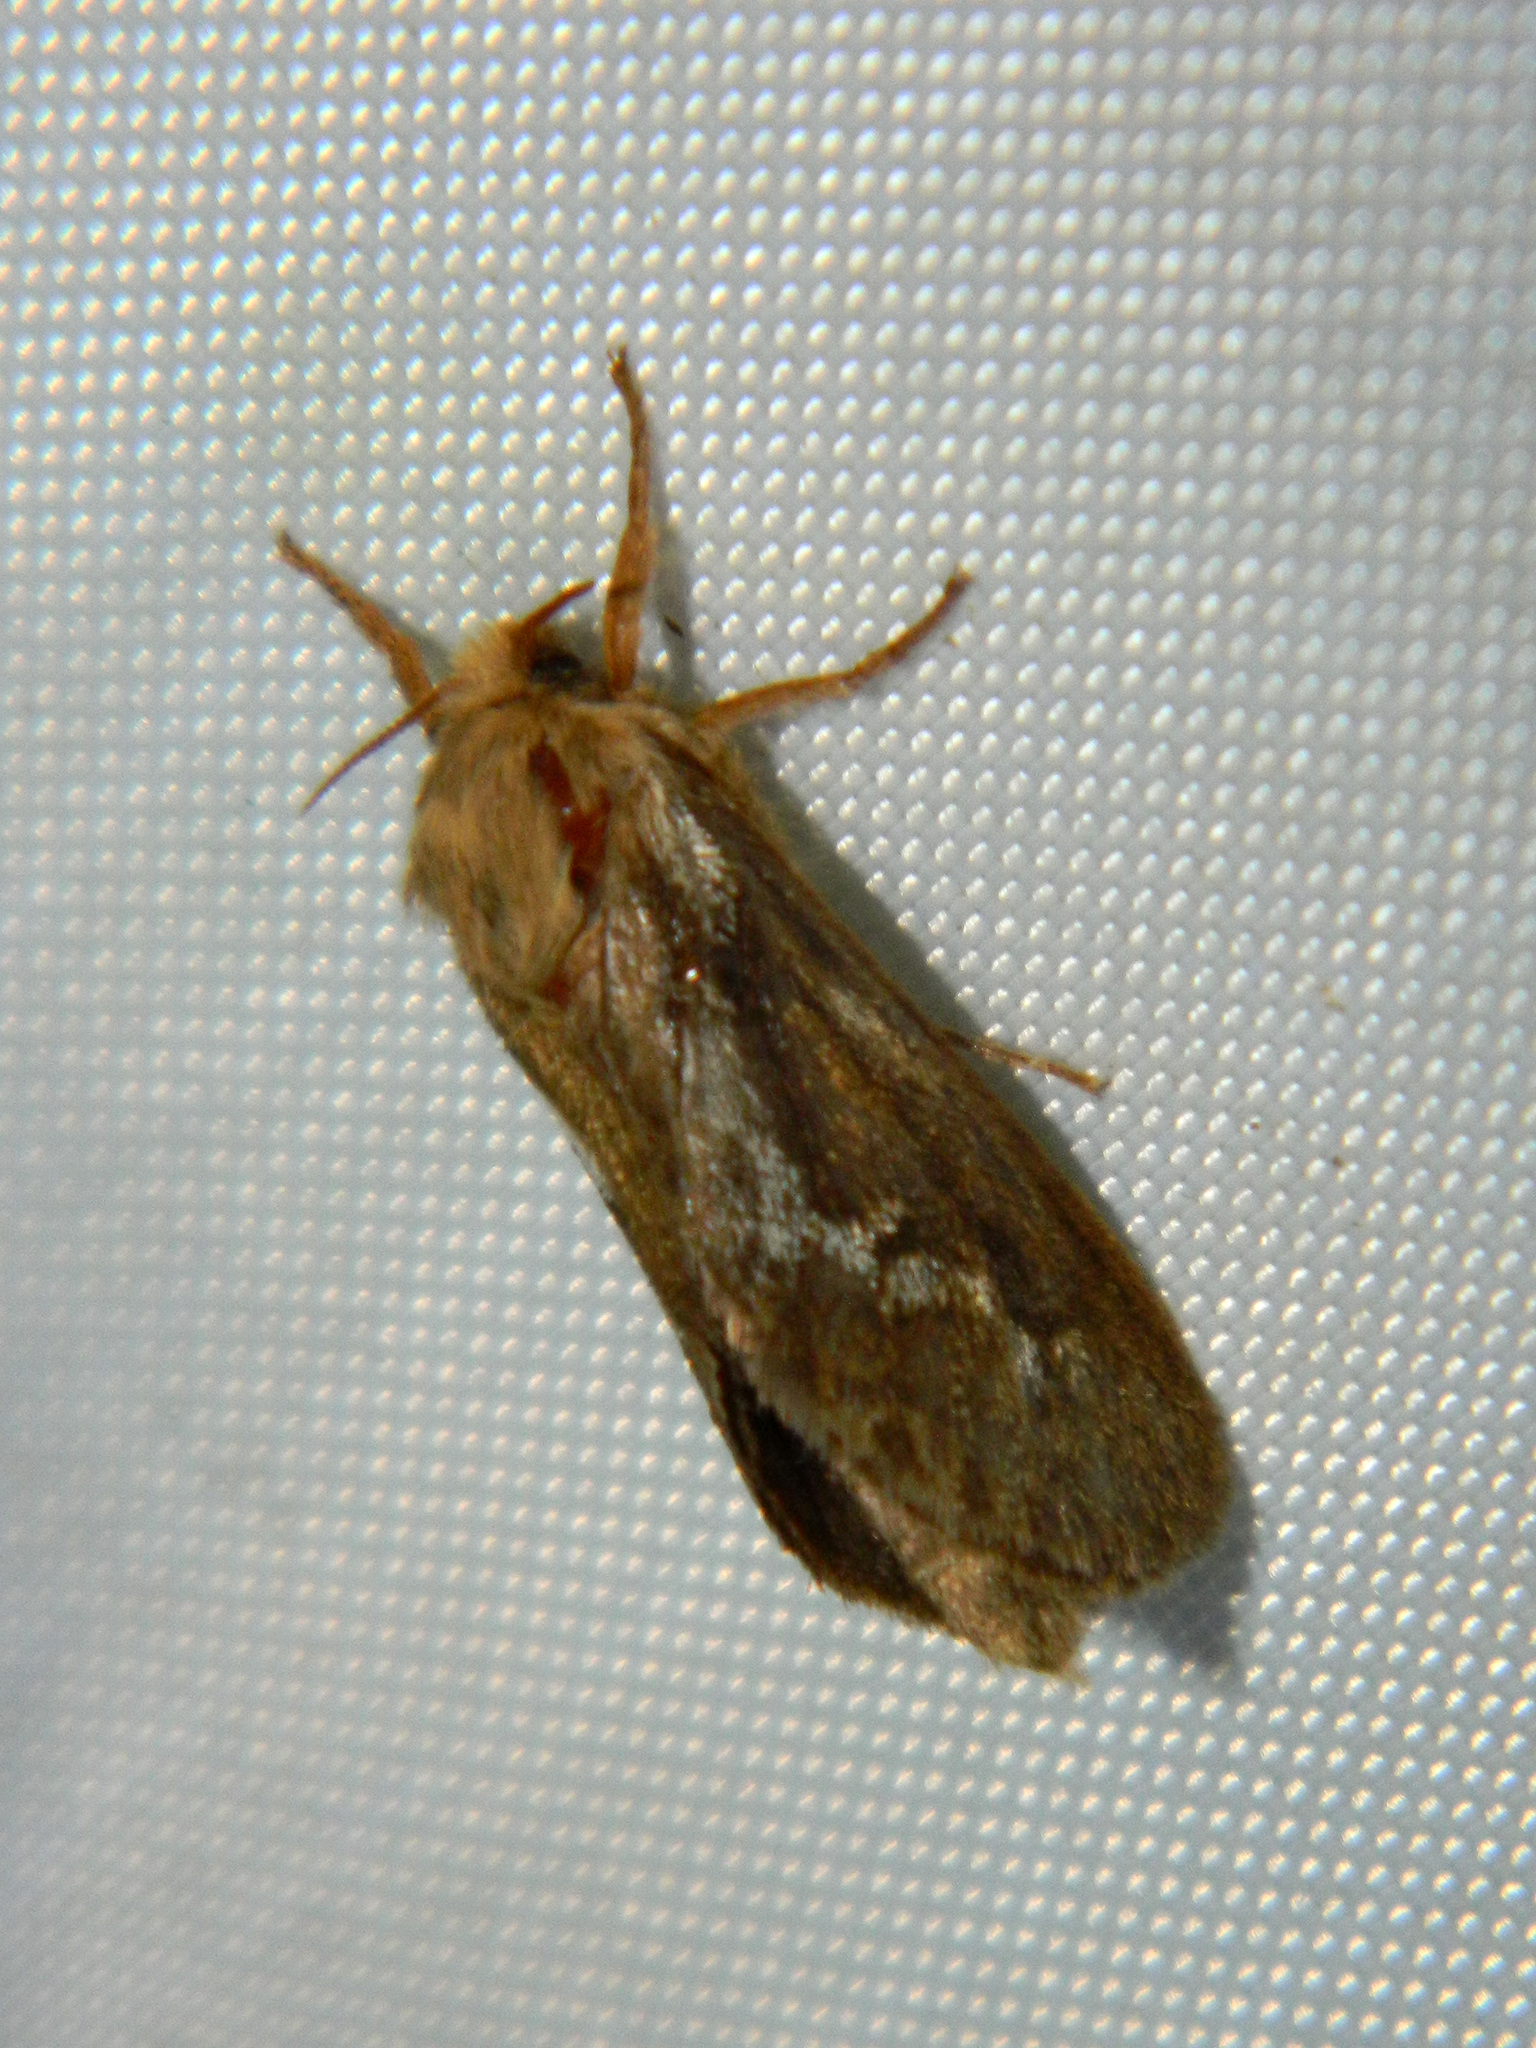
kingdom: Animalia
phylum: Arthropoda
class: Insecta
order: Lepidoptera
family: Hepialidae
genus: Korscheltellus
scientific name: Korscheltellus lupulina
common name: Common swift
